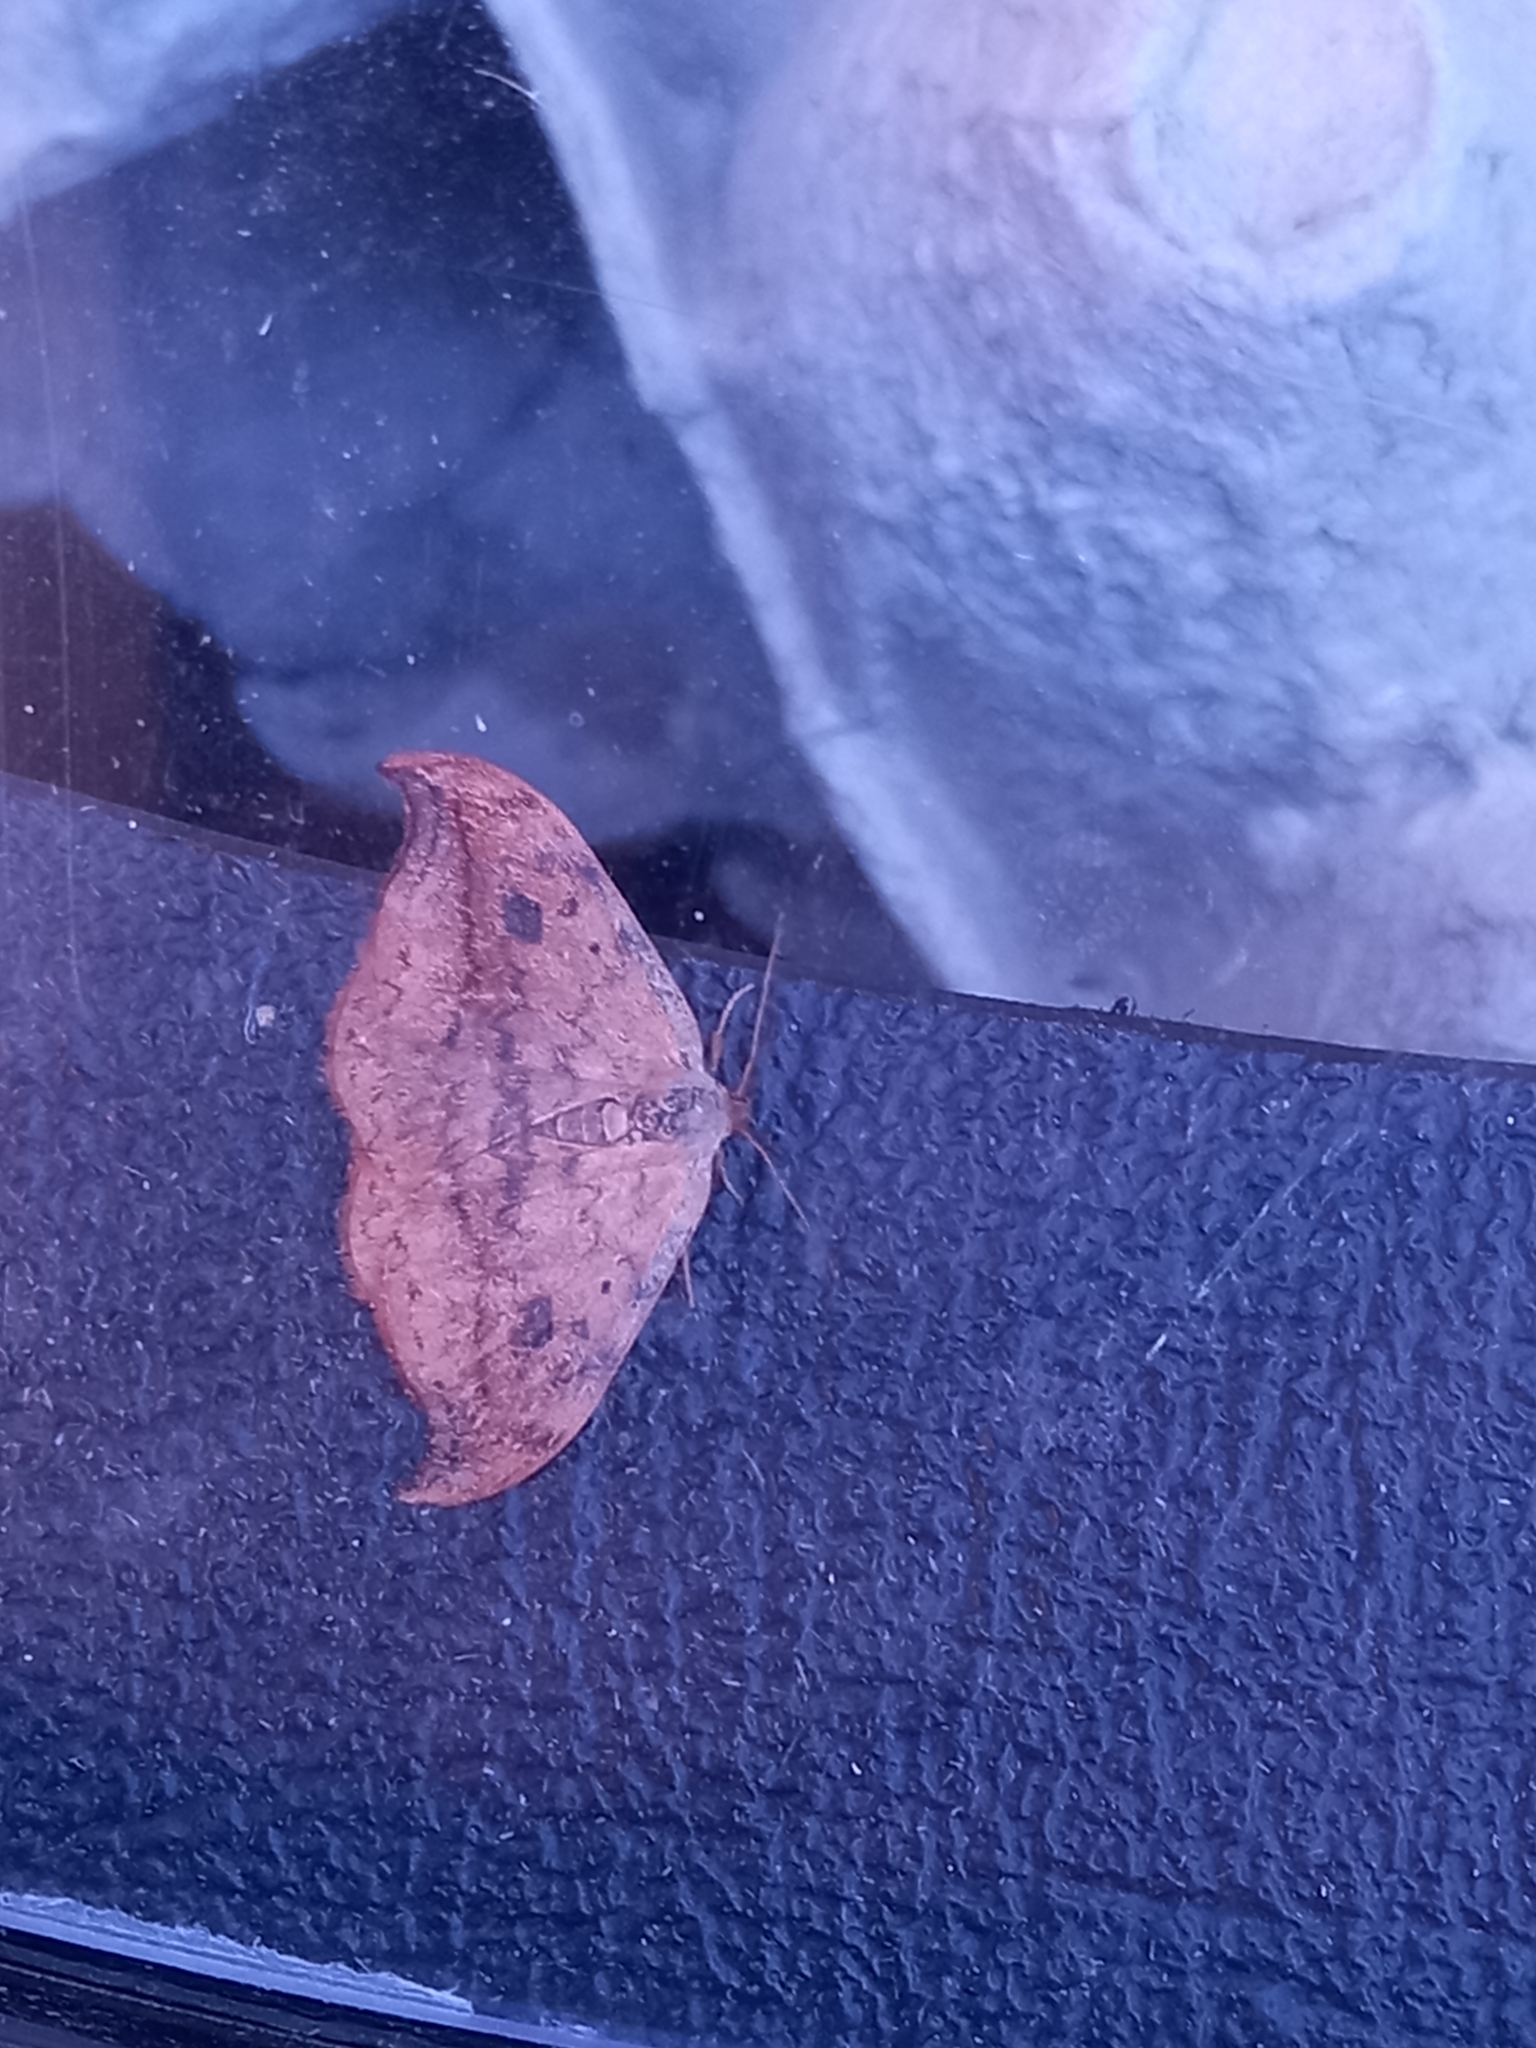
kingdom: Animalia
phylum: Arthropoda
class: Insecta
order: Lepidoptera
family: Drepanidae
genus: Drepana
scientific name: Drepana falcataria
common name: Pebble hook-tip
